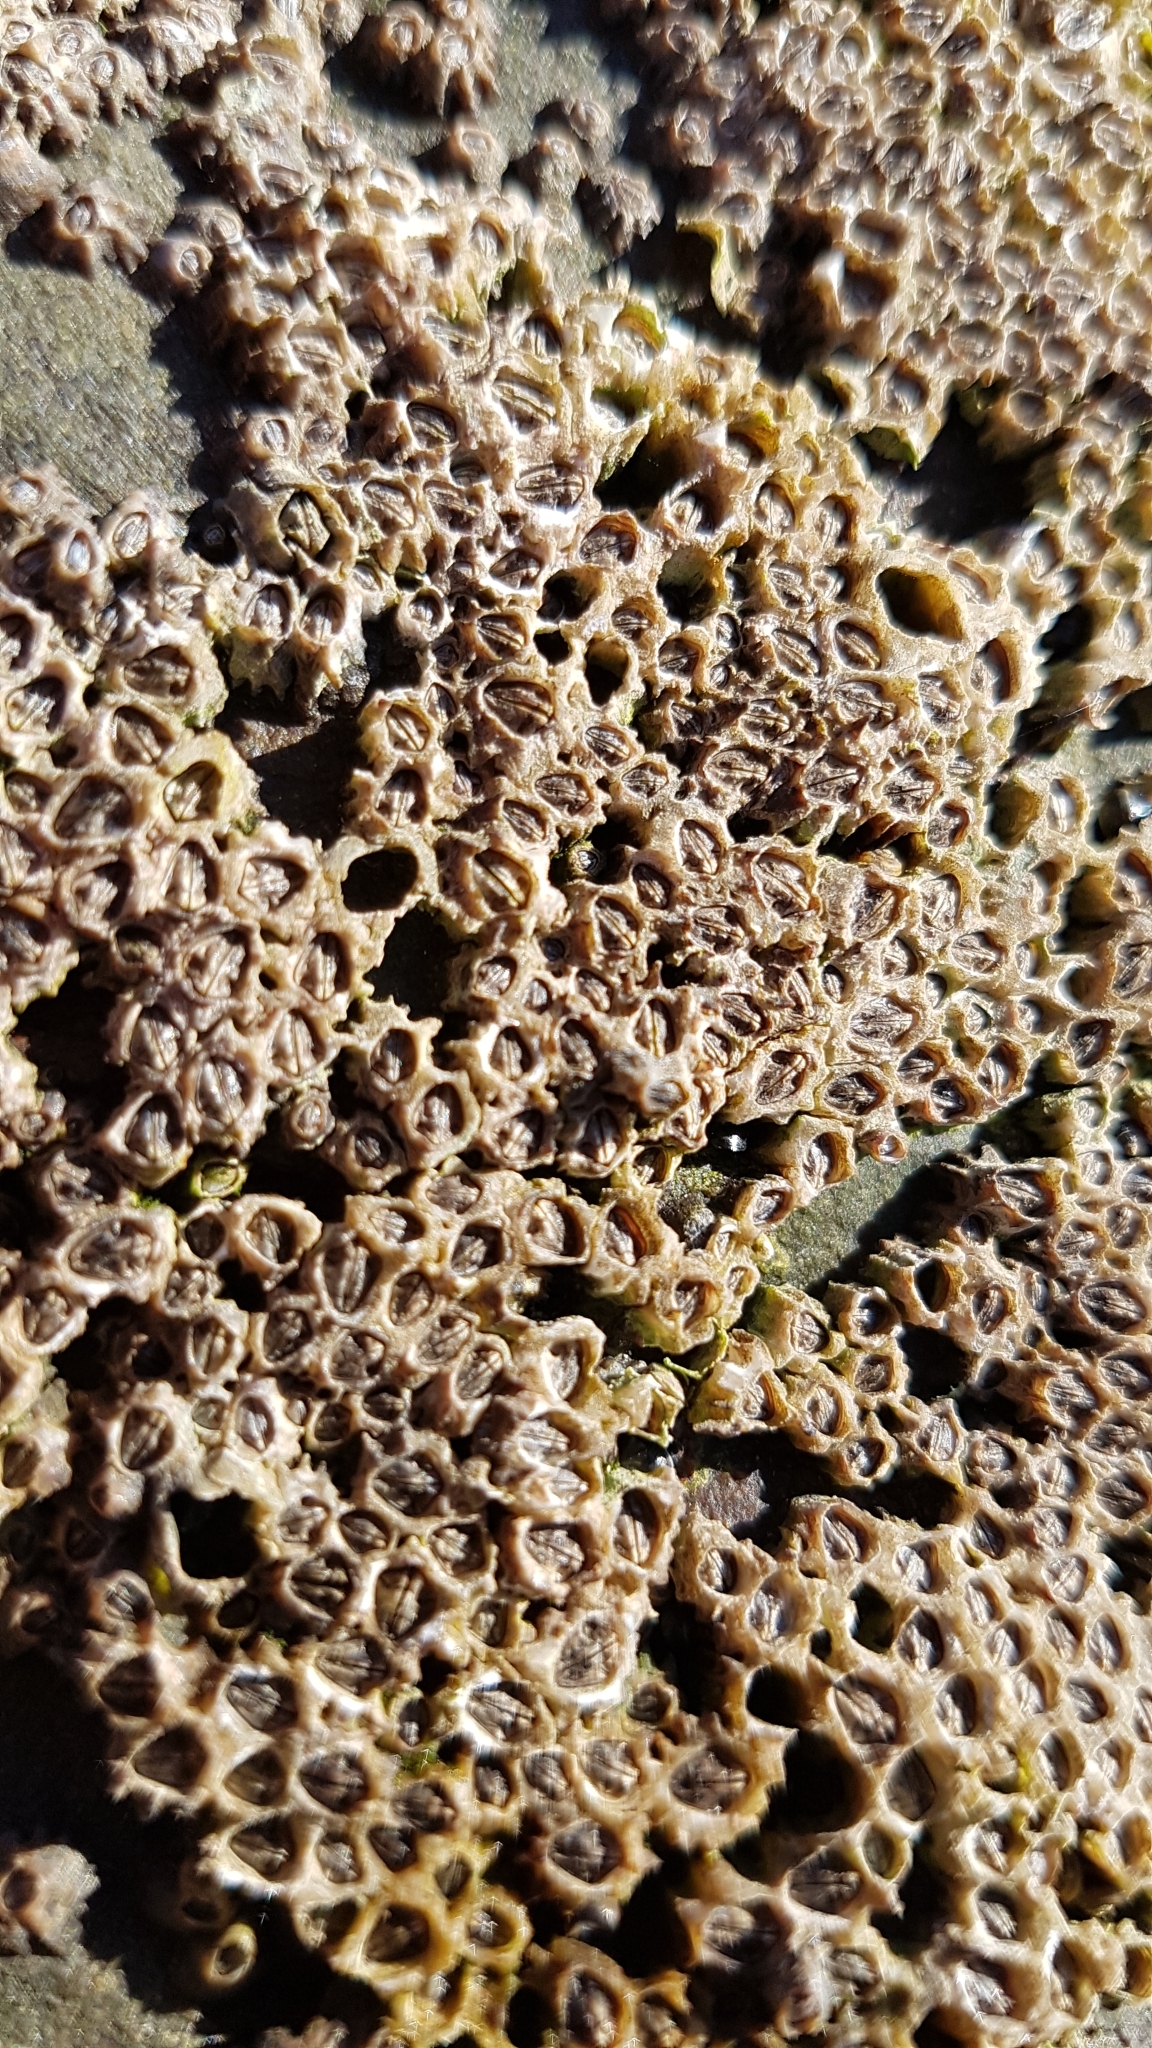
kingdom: Animalia
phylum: Arthropoda
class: Maxillopoda
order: Sessilia
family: Chthamalidae
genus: Chamaesipho
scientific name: Chamaesipho columna
